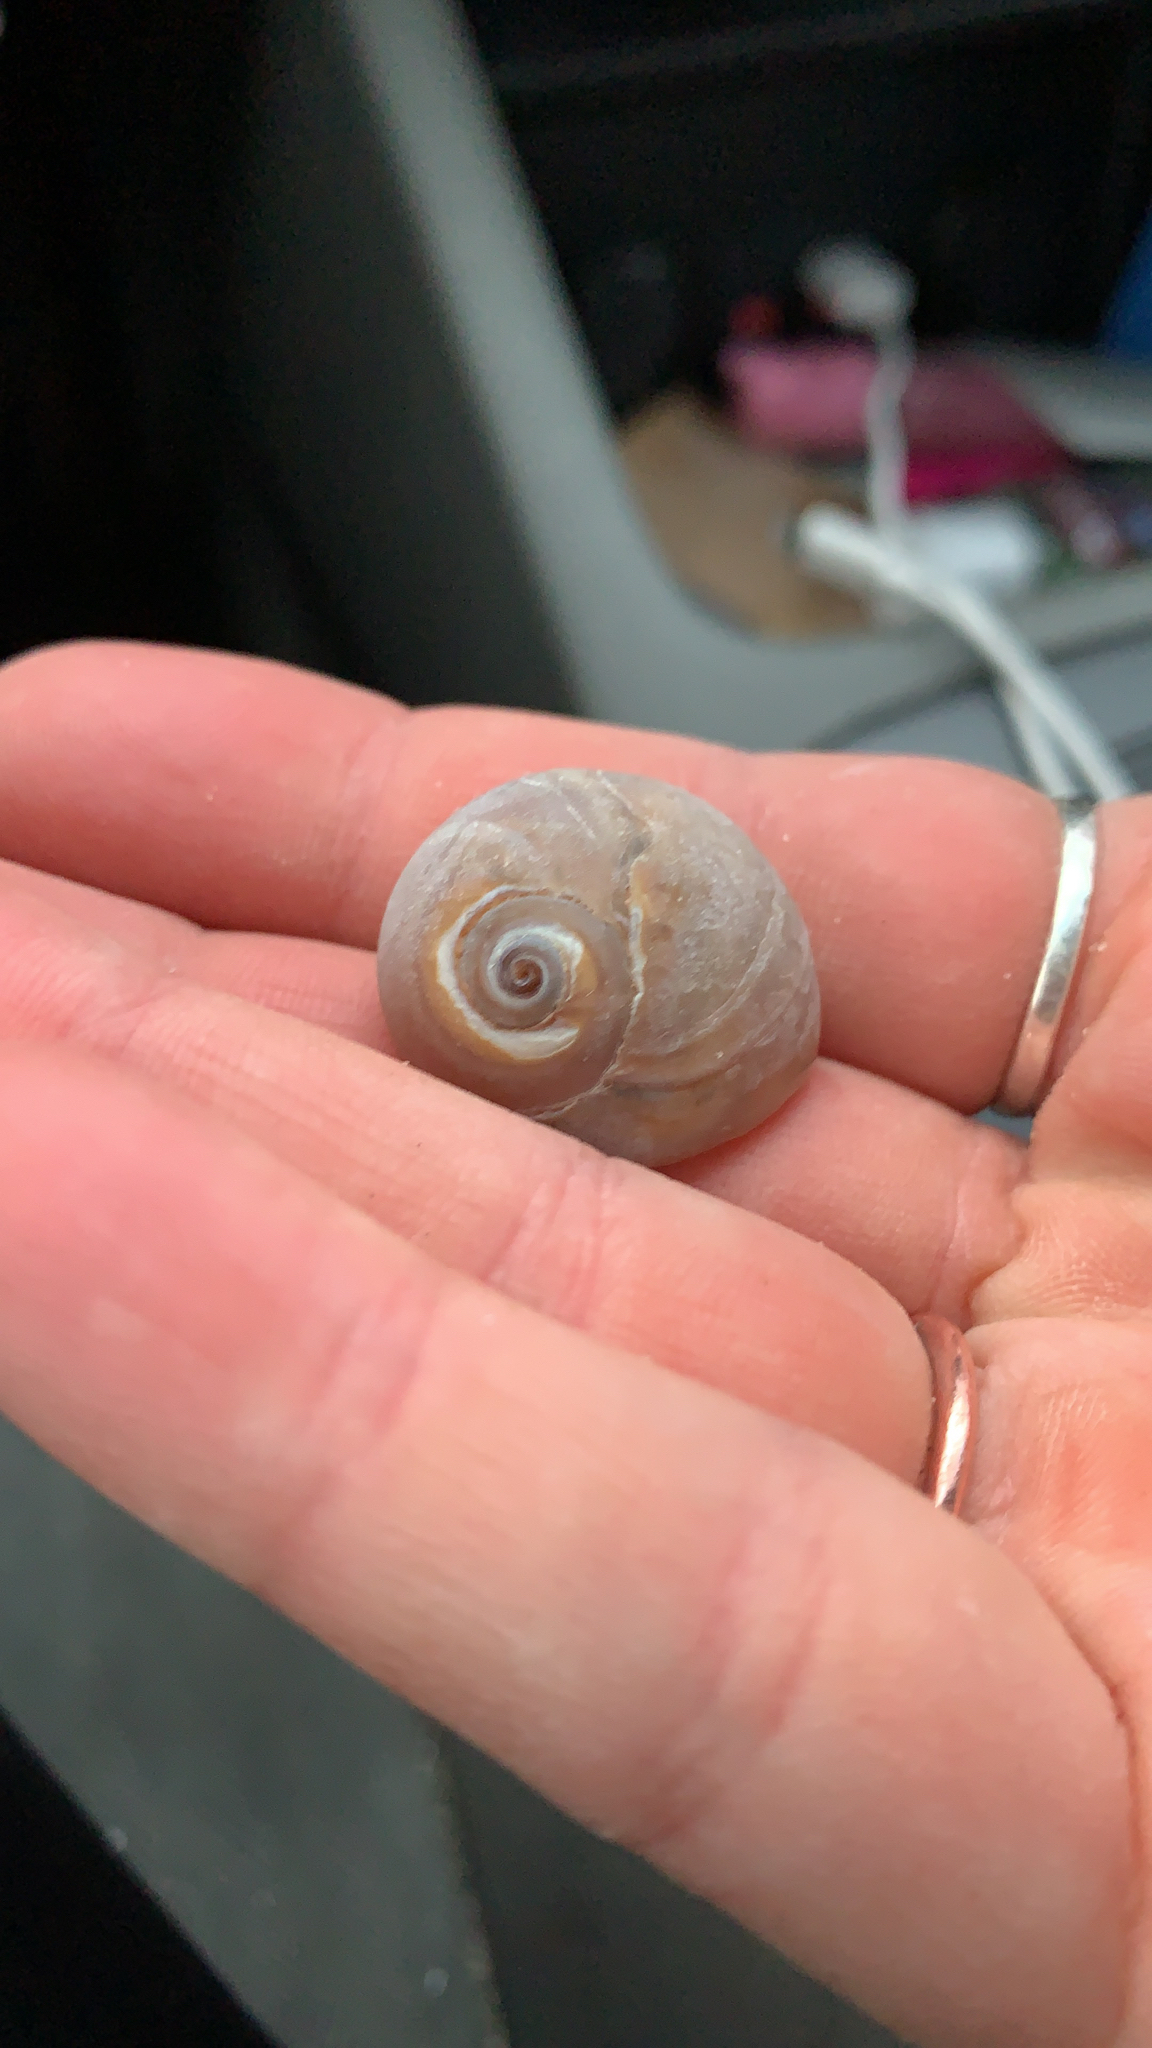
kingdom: Animalia
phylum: Mollusca
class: Gastropoda
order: Littorinimorpha
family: Naticidae
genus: Neverita
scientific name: Neverita duplicata
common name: Lobed moonsnail
